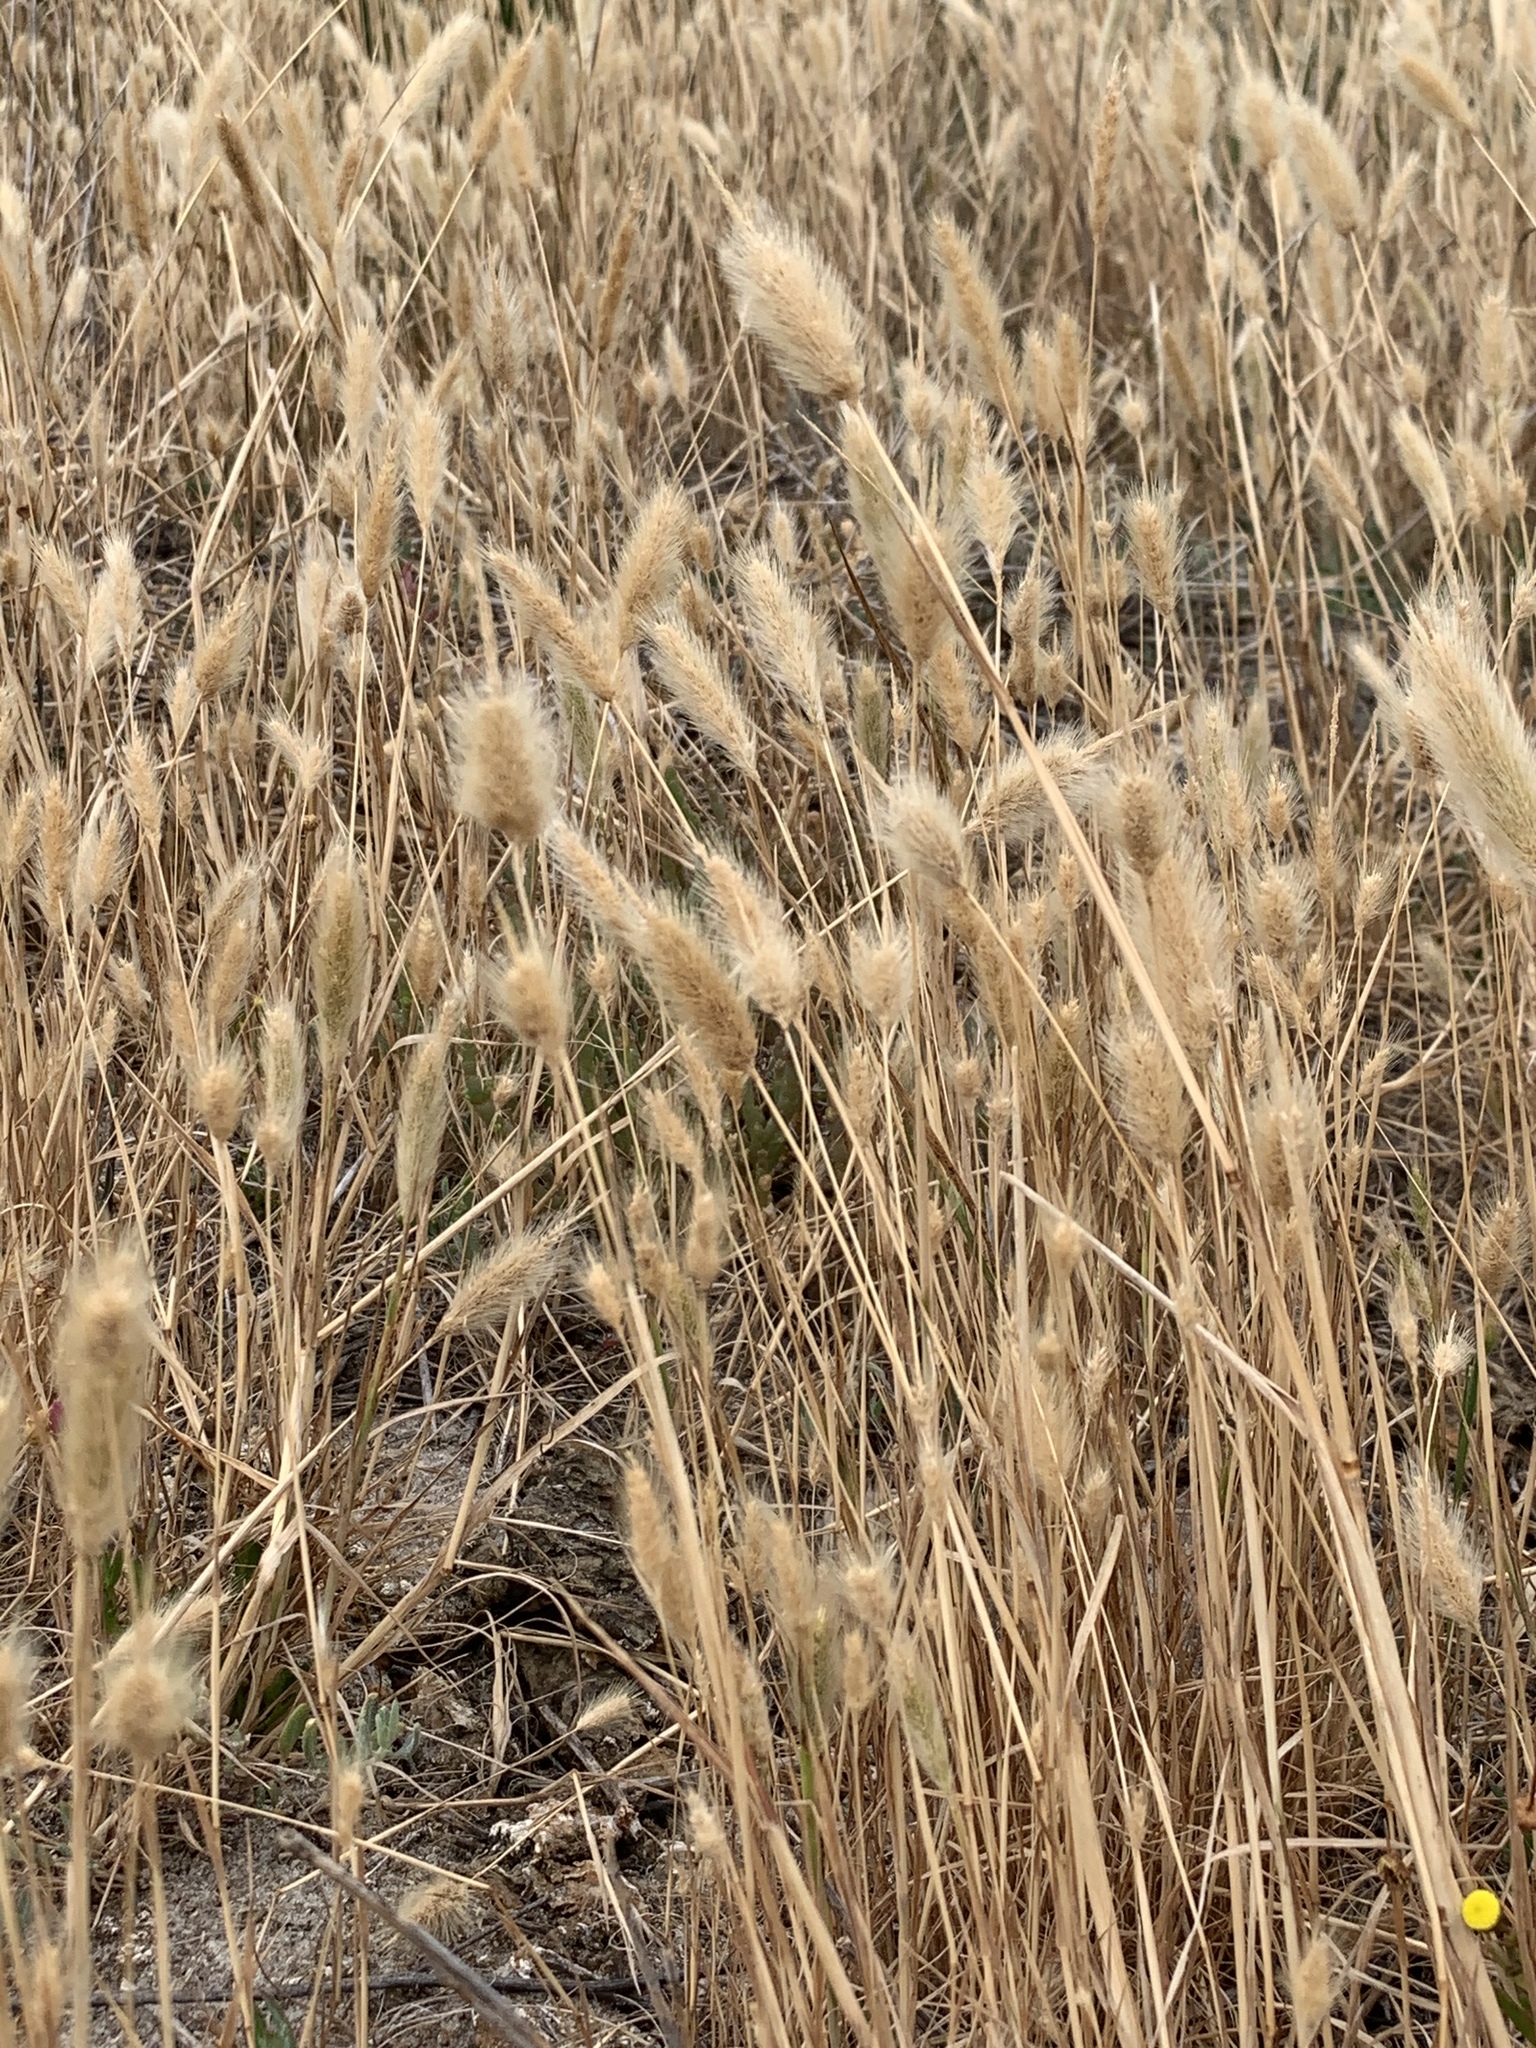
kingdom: Plantae
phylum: Tracheophyta
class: Liliopsida
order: Poales
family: Poaceae
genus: Polypogon
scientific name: Polypogon monspeliensis
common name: Annual rabbitsfoot grass
